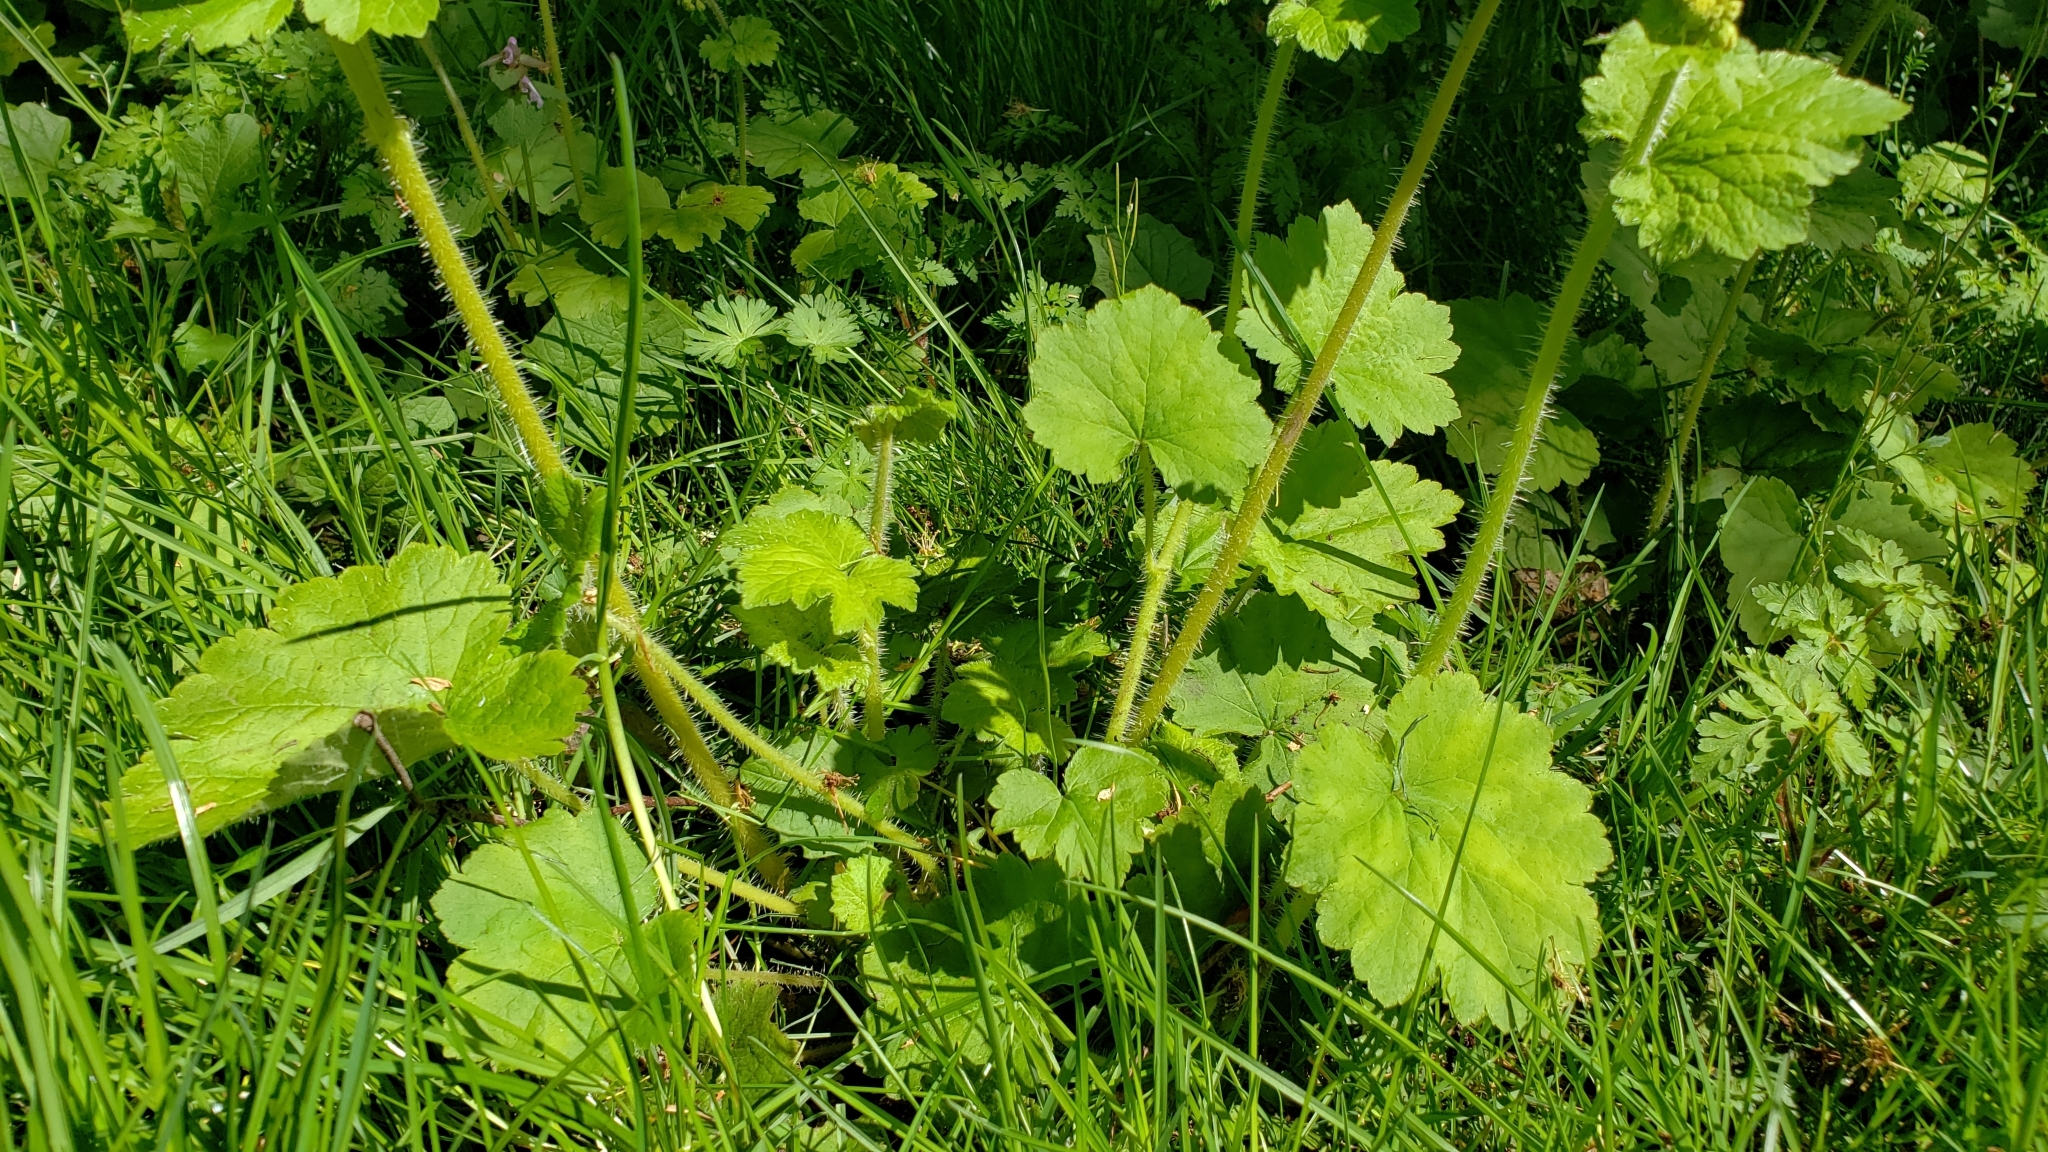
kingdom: Plantae
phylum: Tracheophyta
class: Magnoliopsida
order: Saxifragales
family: Saxifragaceae
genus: Tellima
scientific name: Tellima grandiflora
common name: Fringecups
